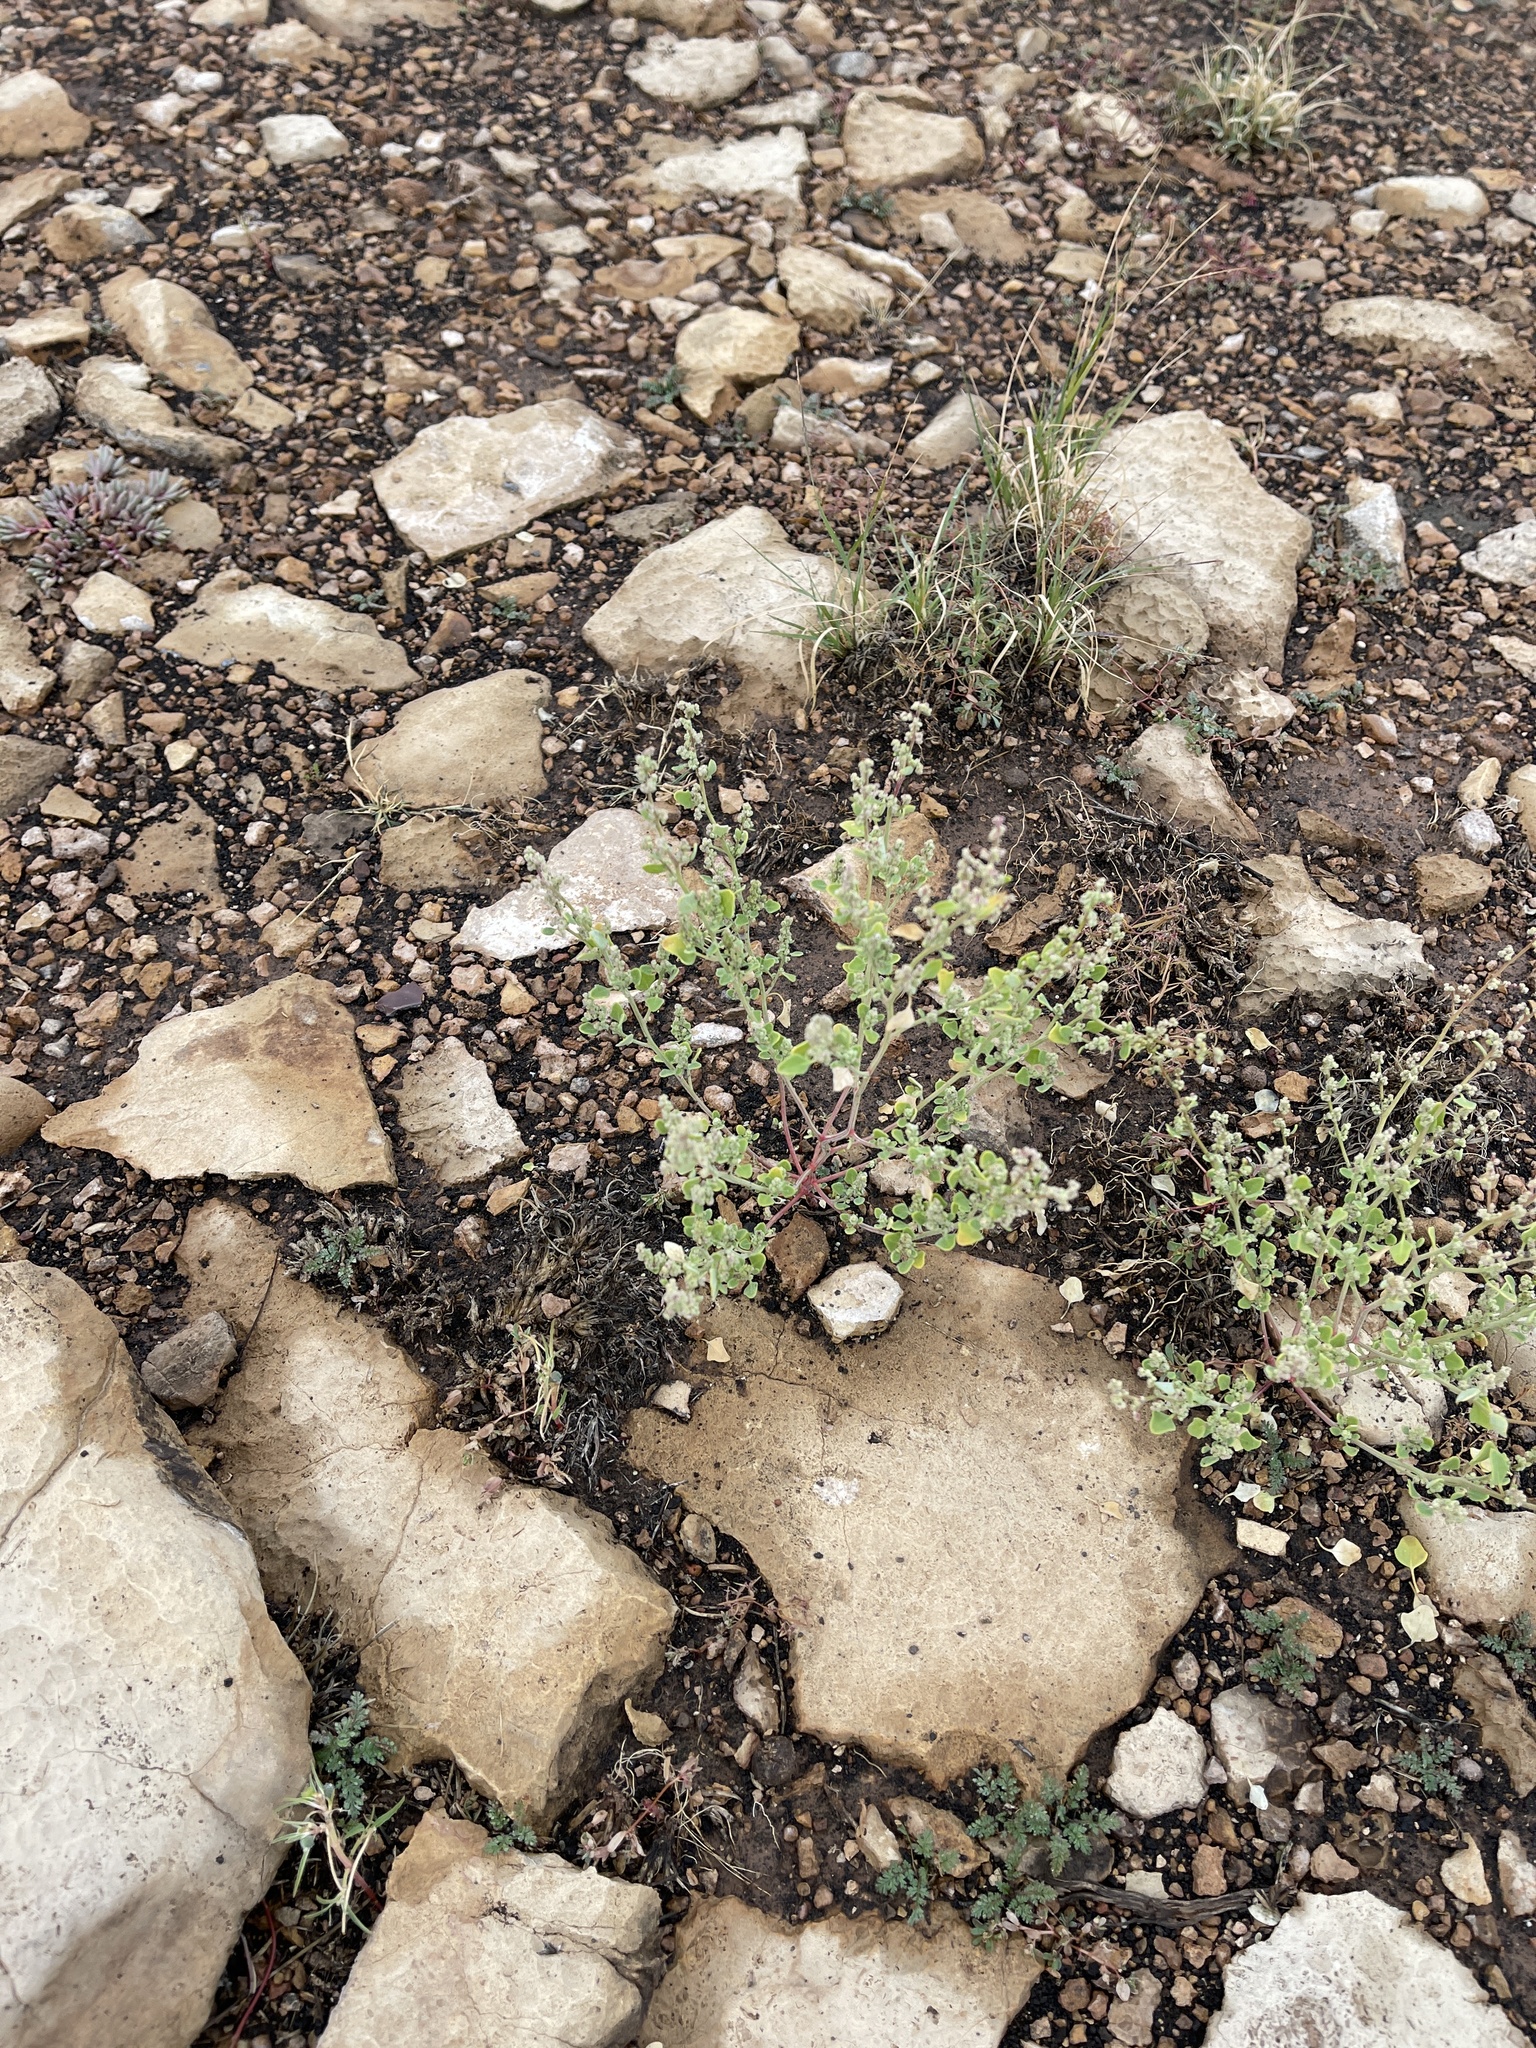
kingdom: Plantae
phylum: Tracheophyta
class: Magnoliopsida
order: Caryophyllales
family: Amaranthaceae
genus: Atriplex
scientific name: Atriplex leucophylla
